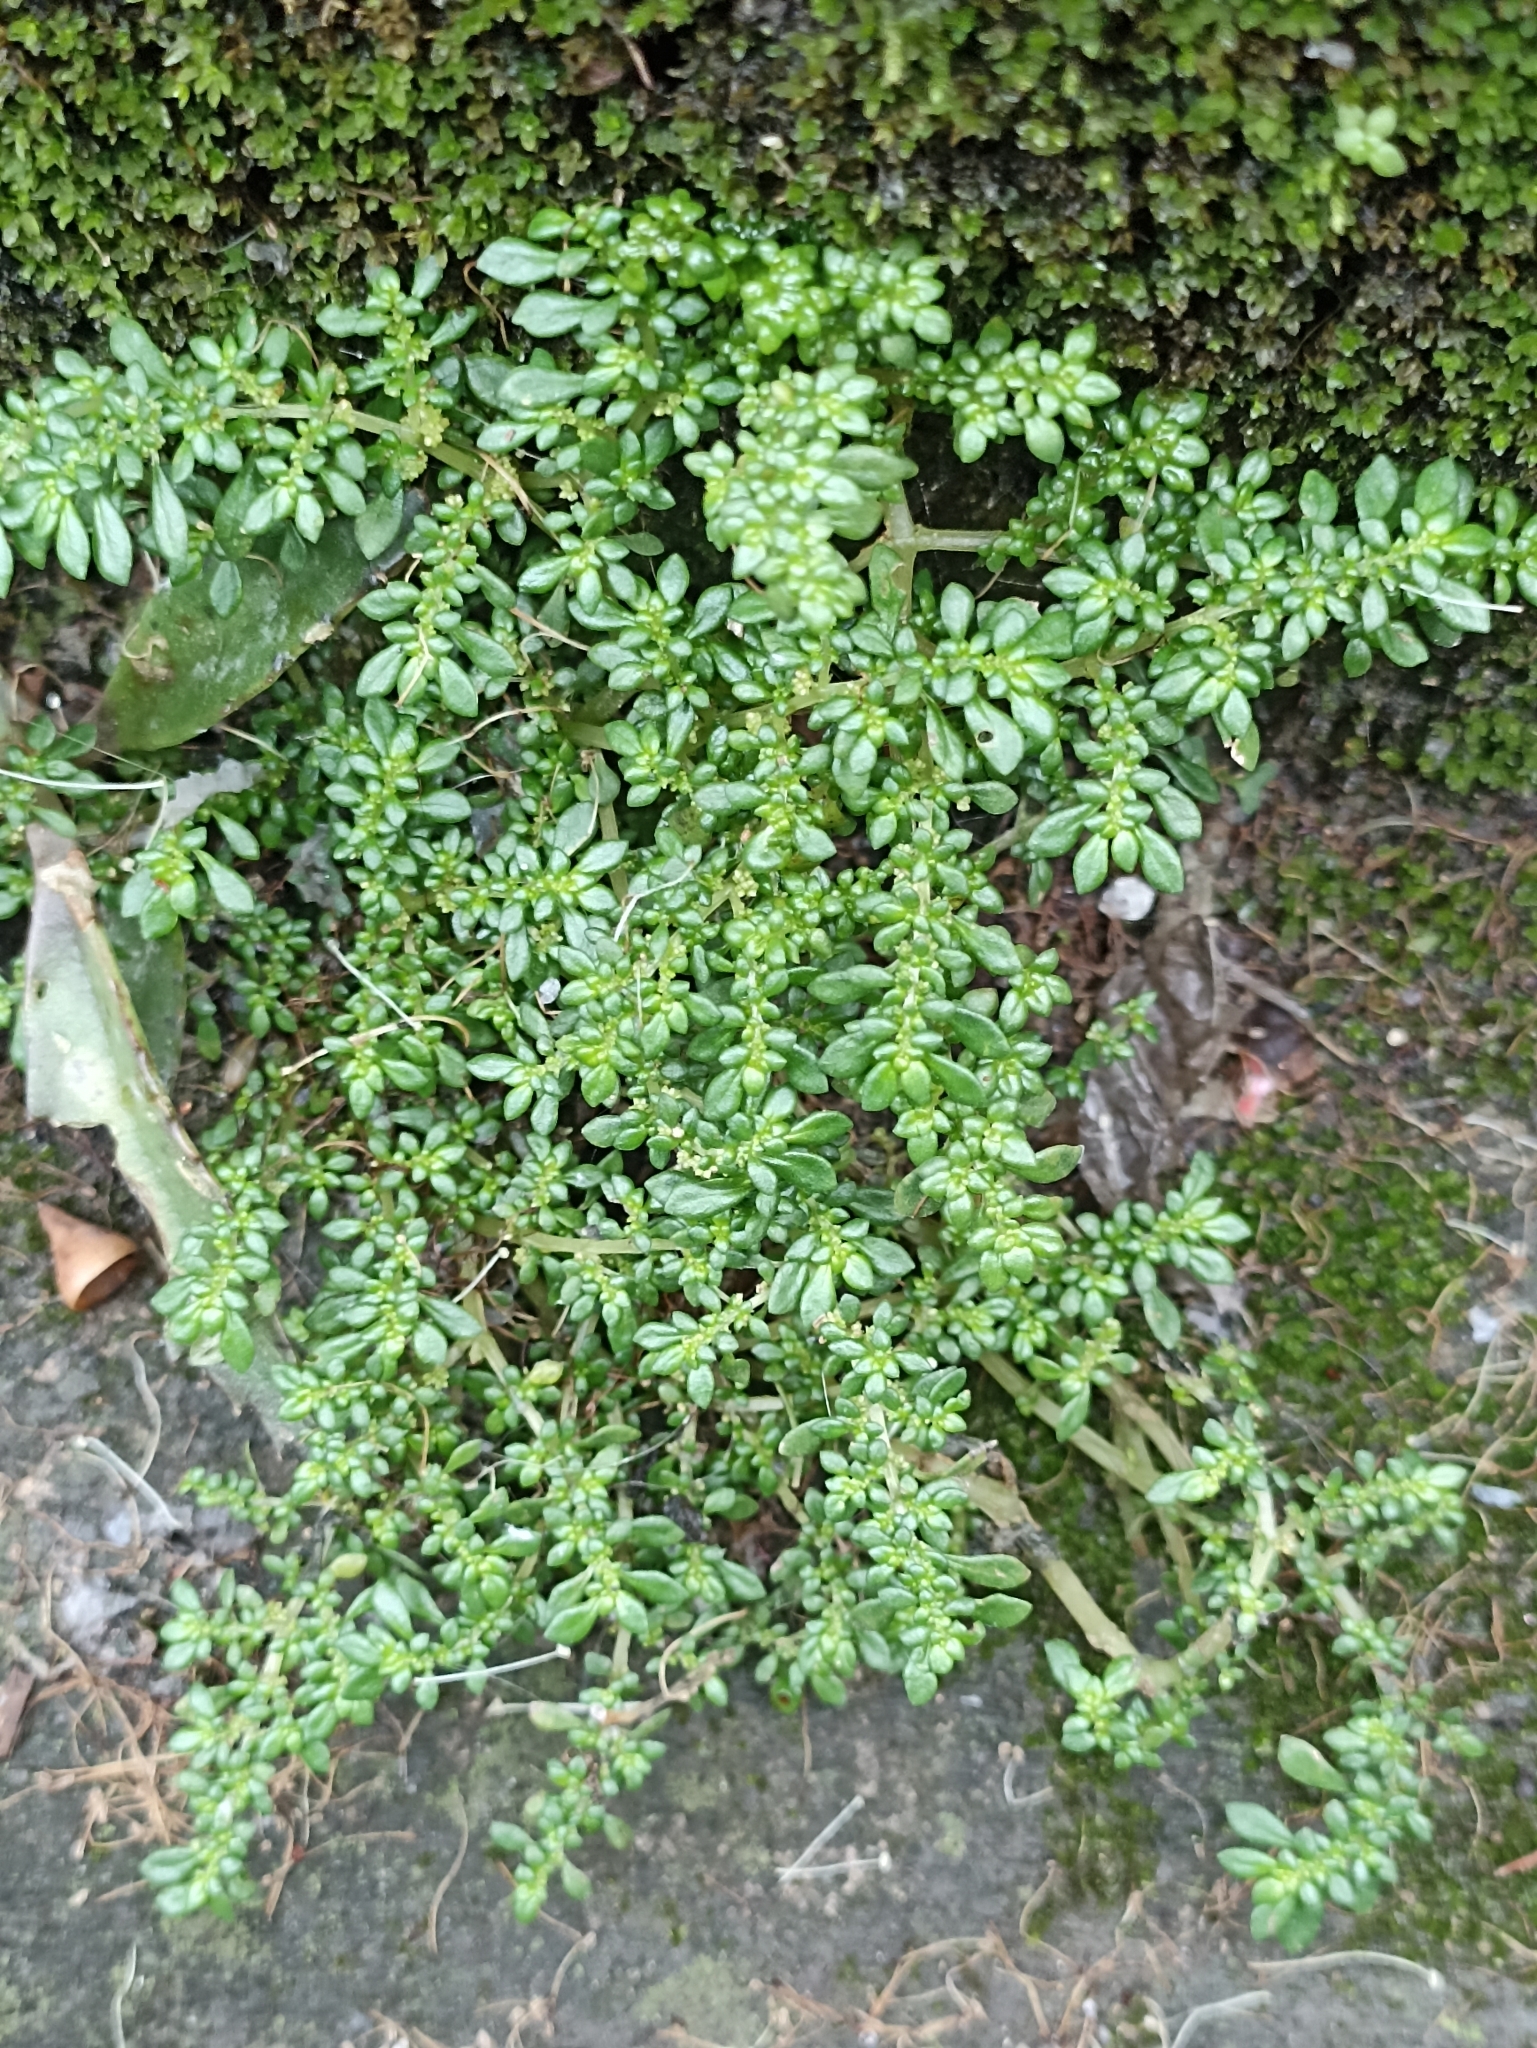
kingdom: Plantae
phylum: Tracheophyta
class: Magnoliopsida
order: Rosales
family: Urticaceae
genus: Pilea
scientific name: Pilea microphylla
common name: Artillery-plant
